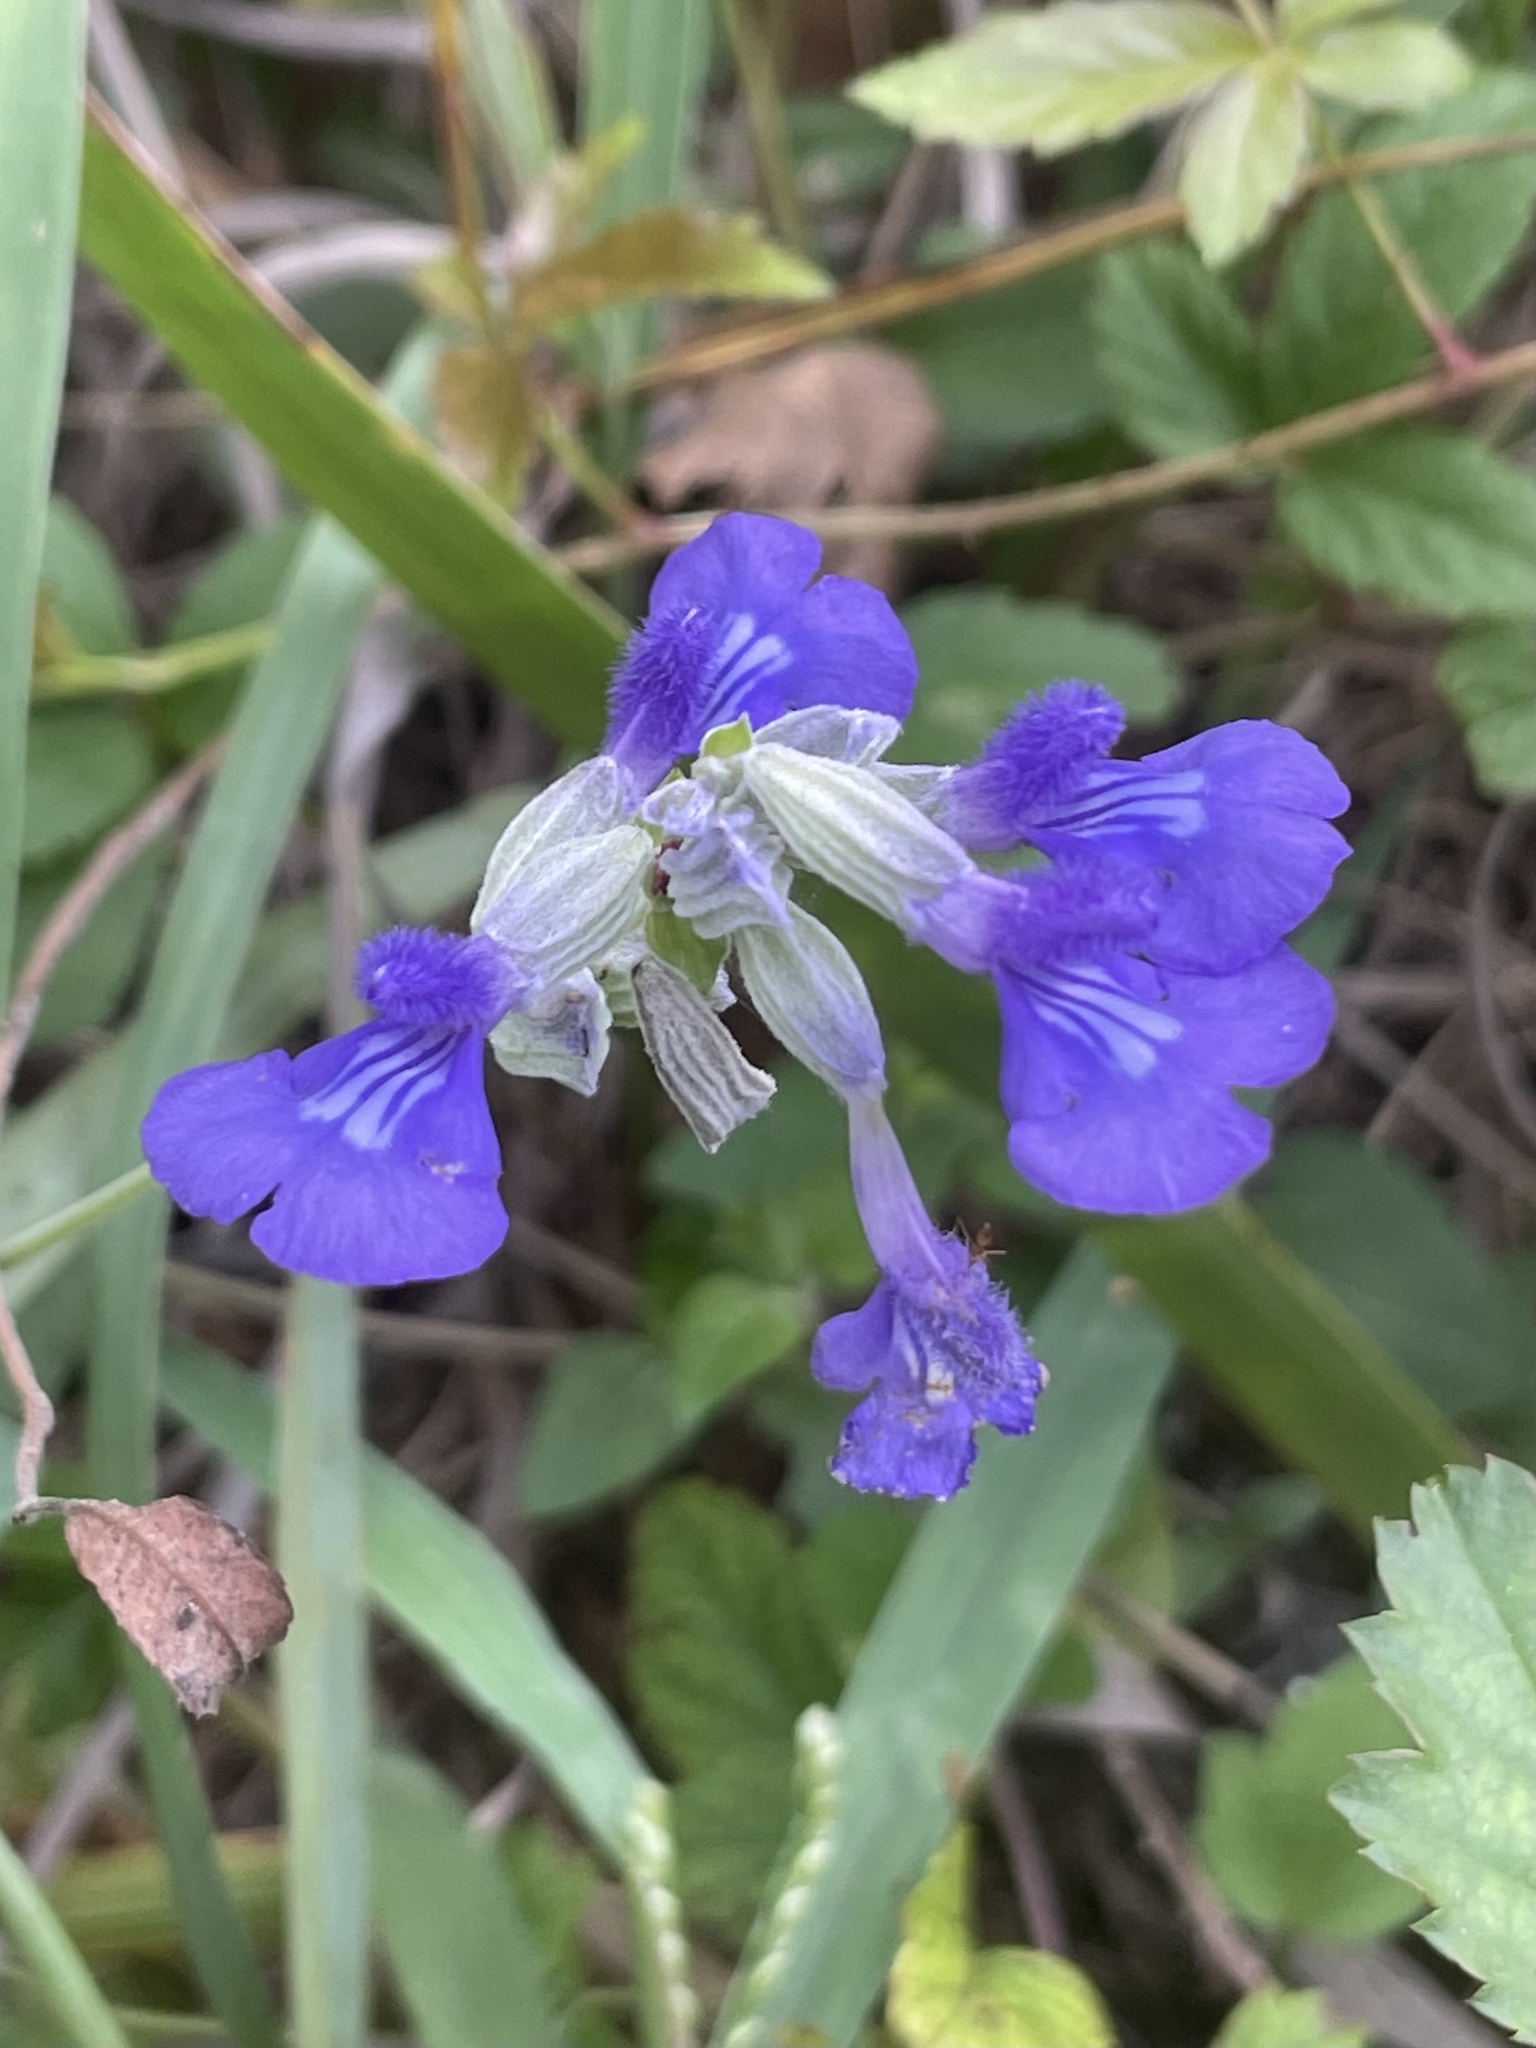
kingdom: Plantae
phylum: Tracheophyta
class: Magnoliopsida
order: Lamiales
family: Lamiaceae
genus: Salvia
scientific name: Salvia farinacea
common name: Mealy sage
